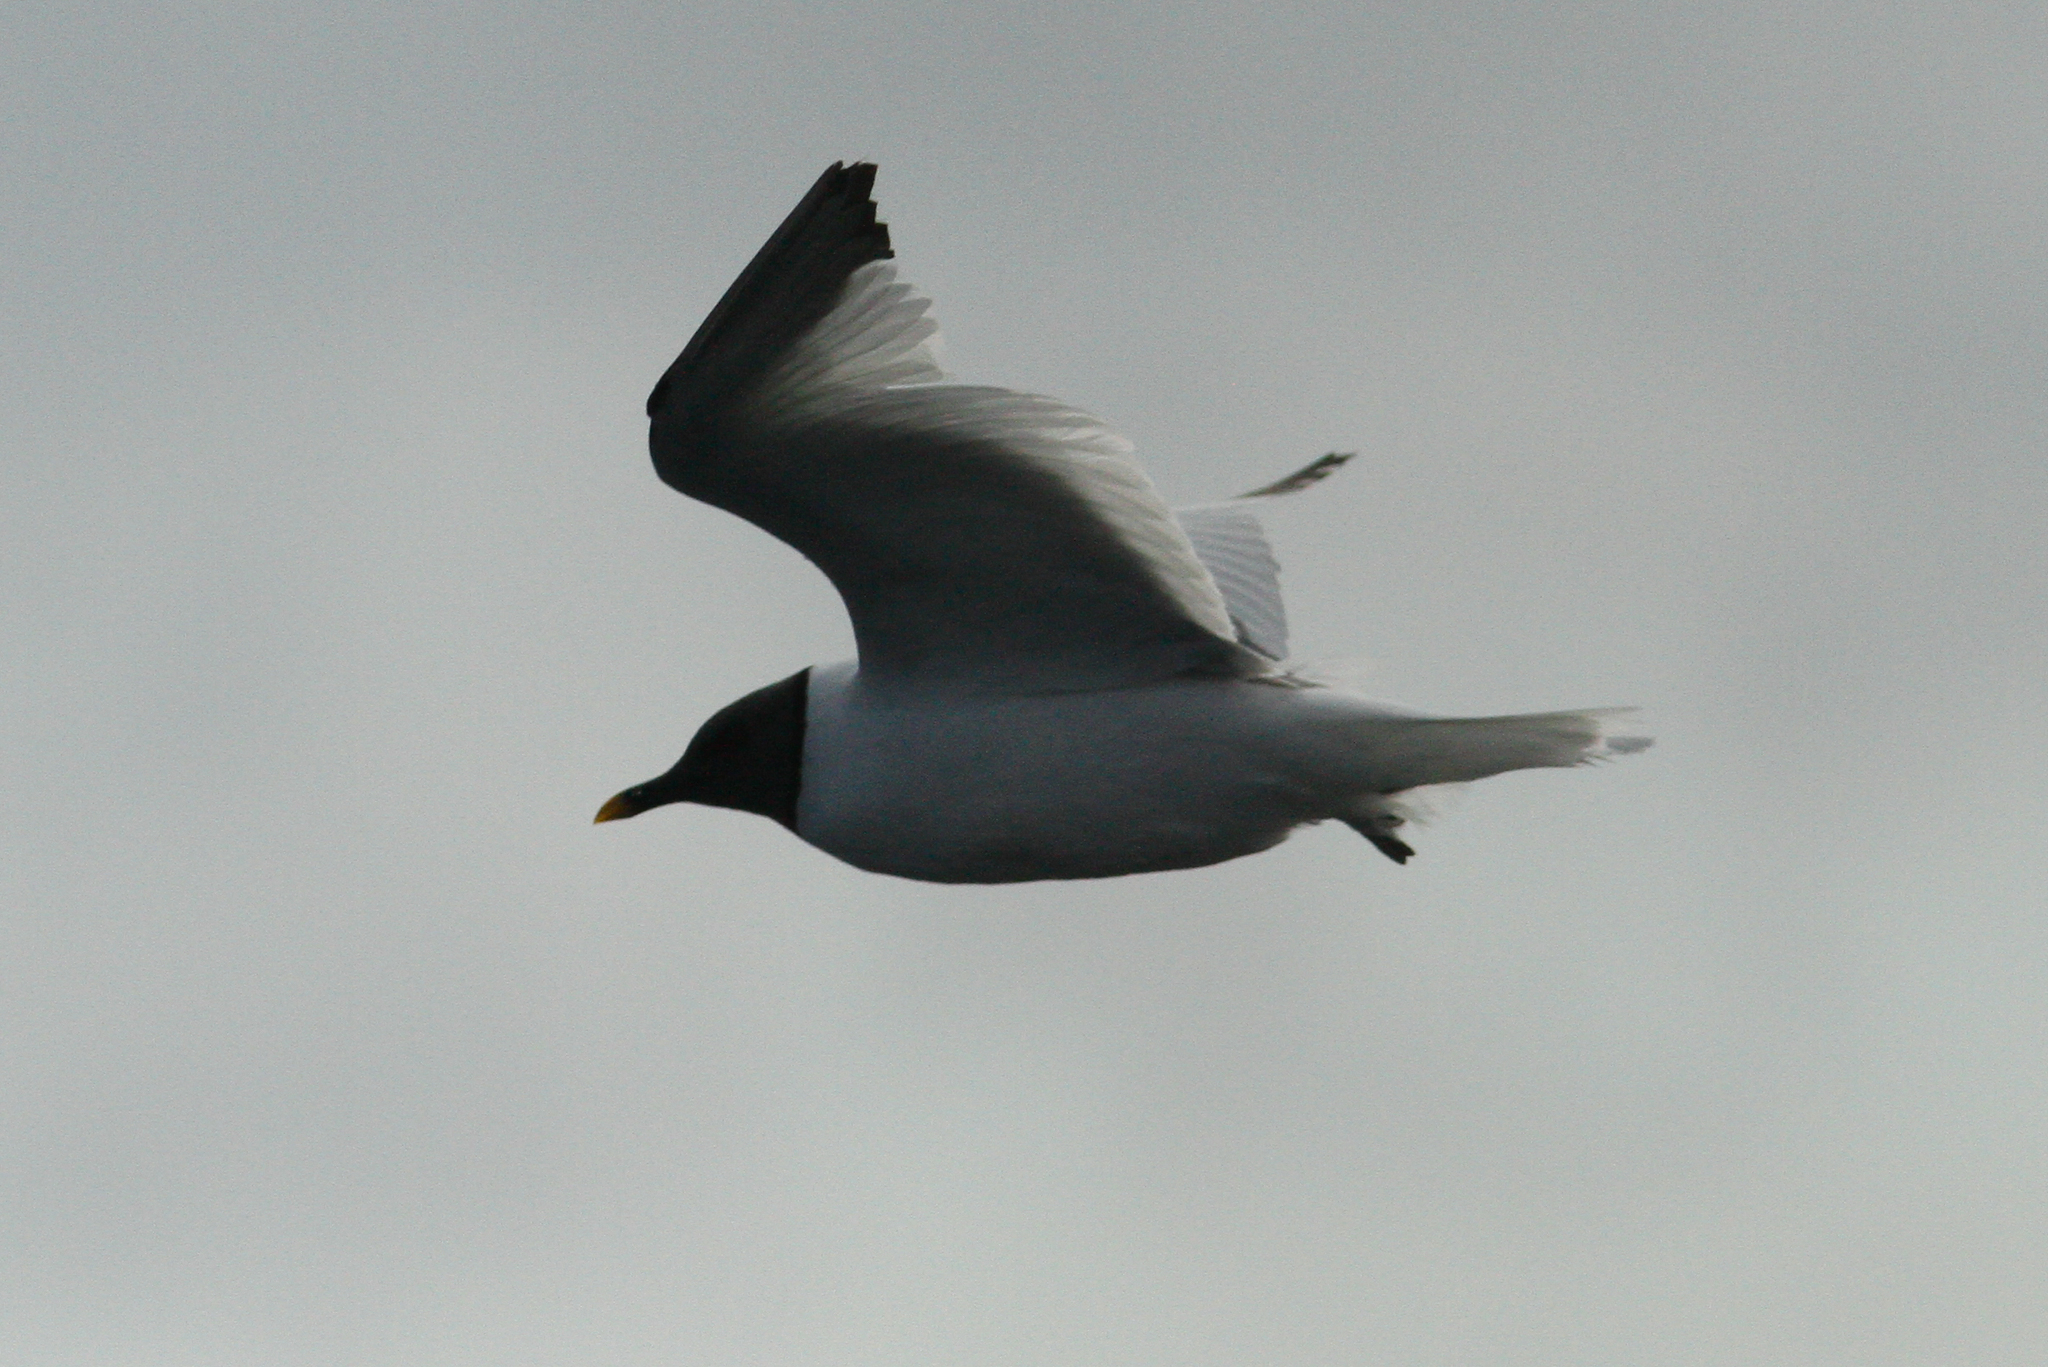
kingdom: Animalia
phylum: Chordata
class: Aves
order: Charadriiformes
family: Laridae
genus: Xema
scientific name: Xema sabini
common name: Sabine's gull
